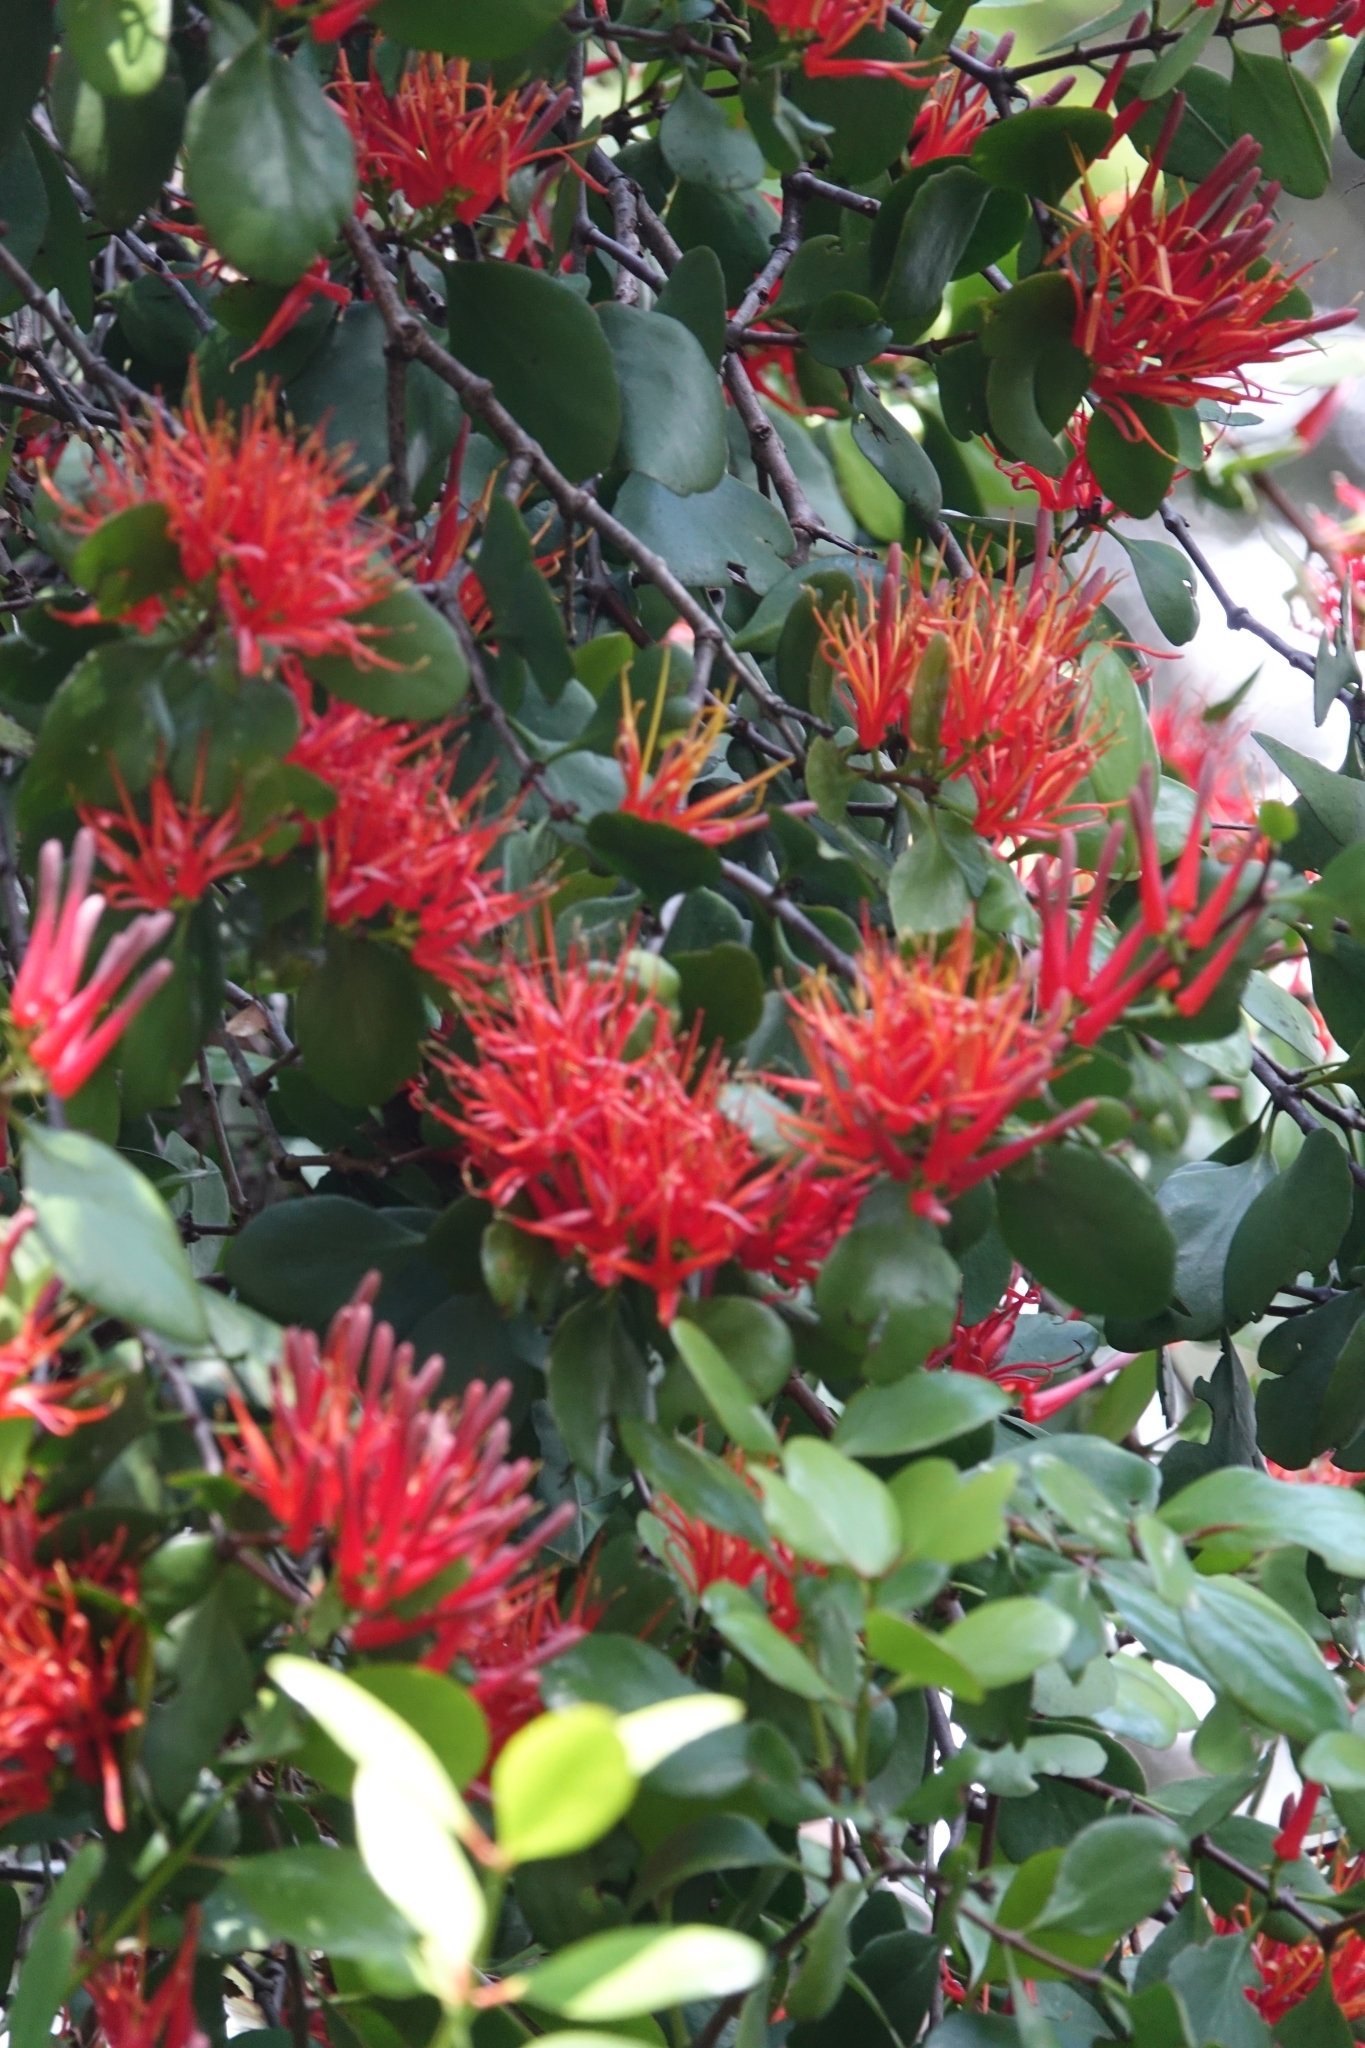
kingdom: Plantae
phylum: Tracheophyta
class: Magnoliopsida
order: Santalales
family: Loranthaceae
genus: Peraxilla
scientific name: Peraxilla colensoi
